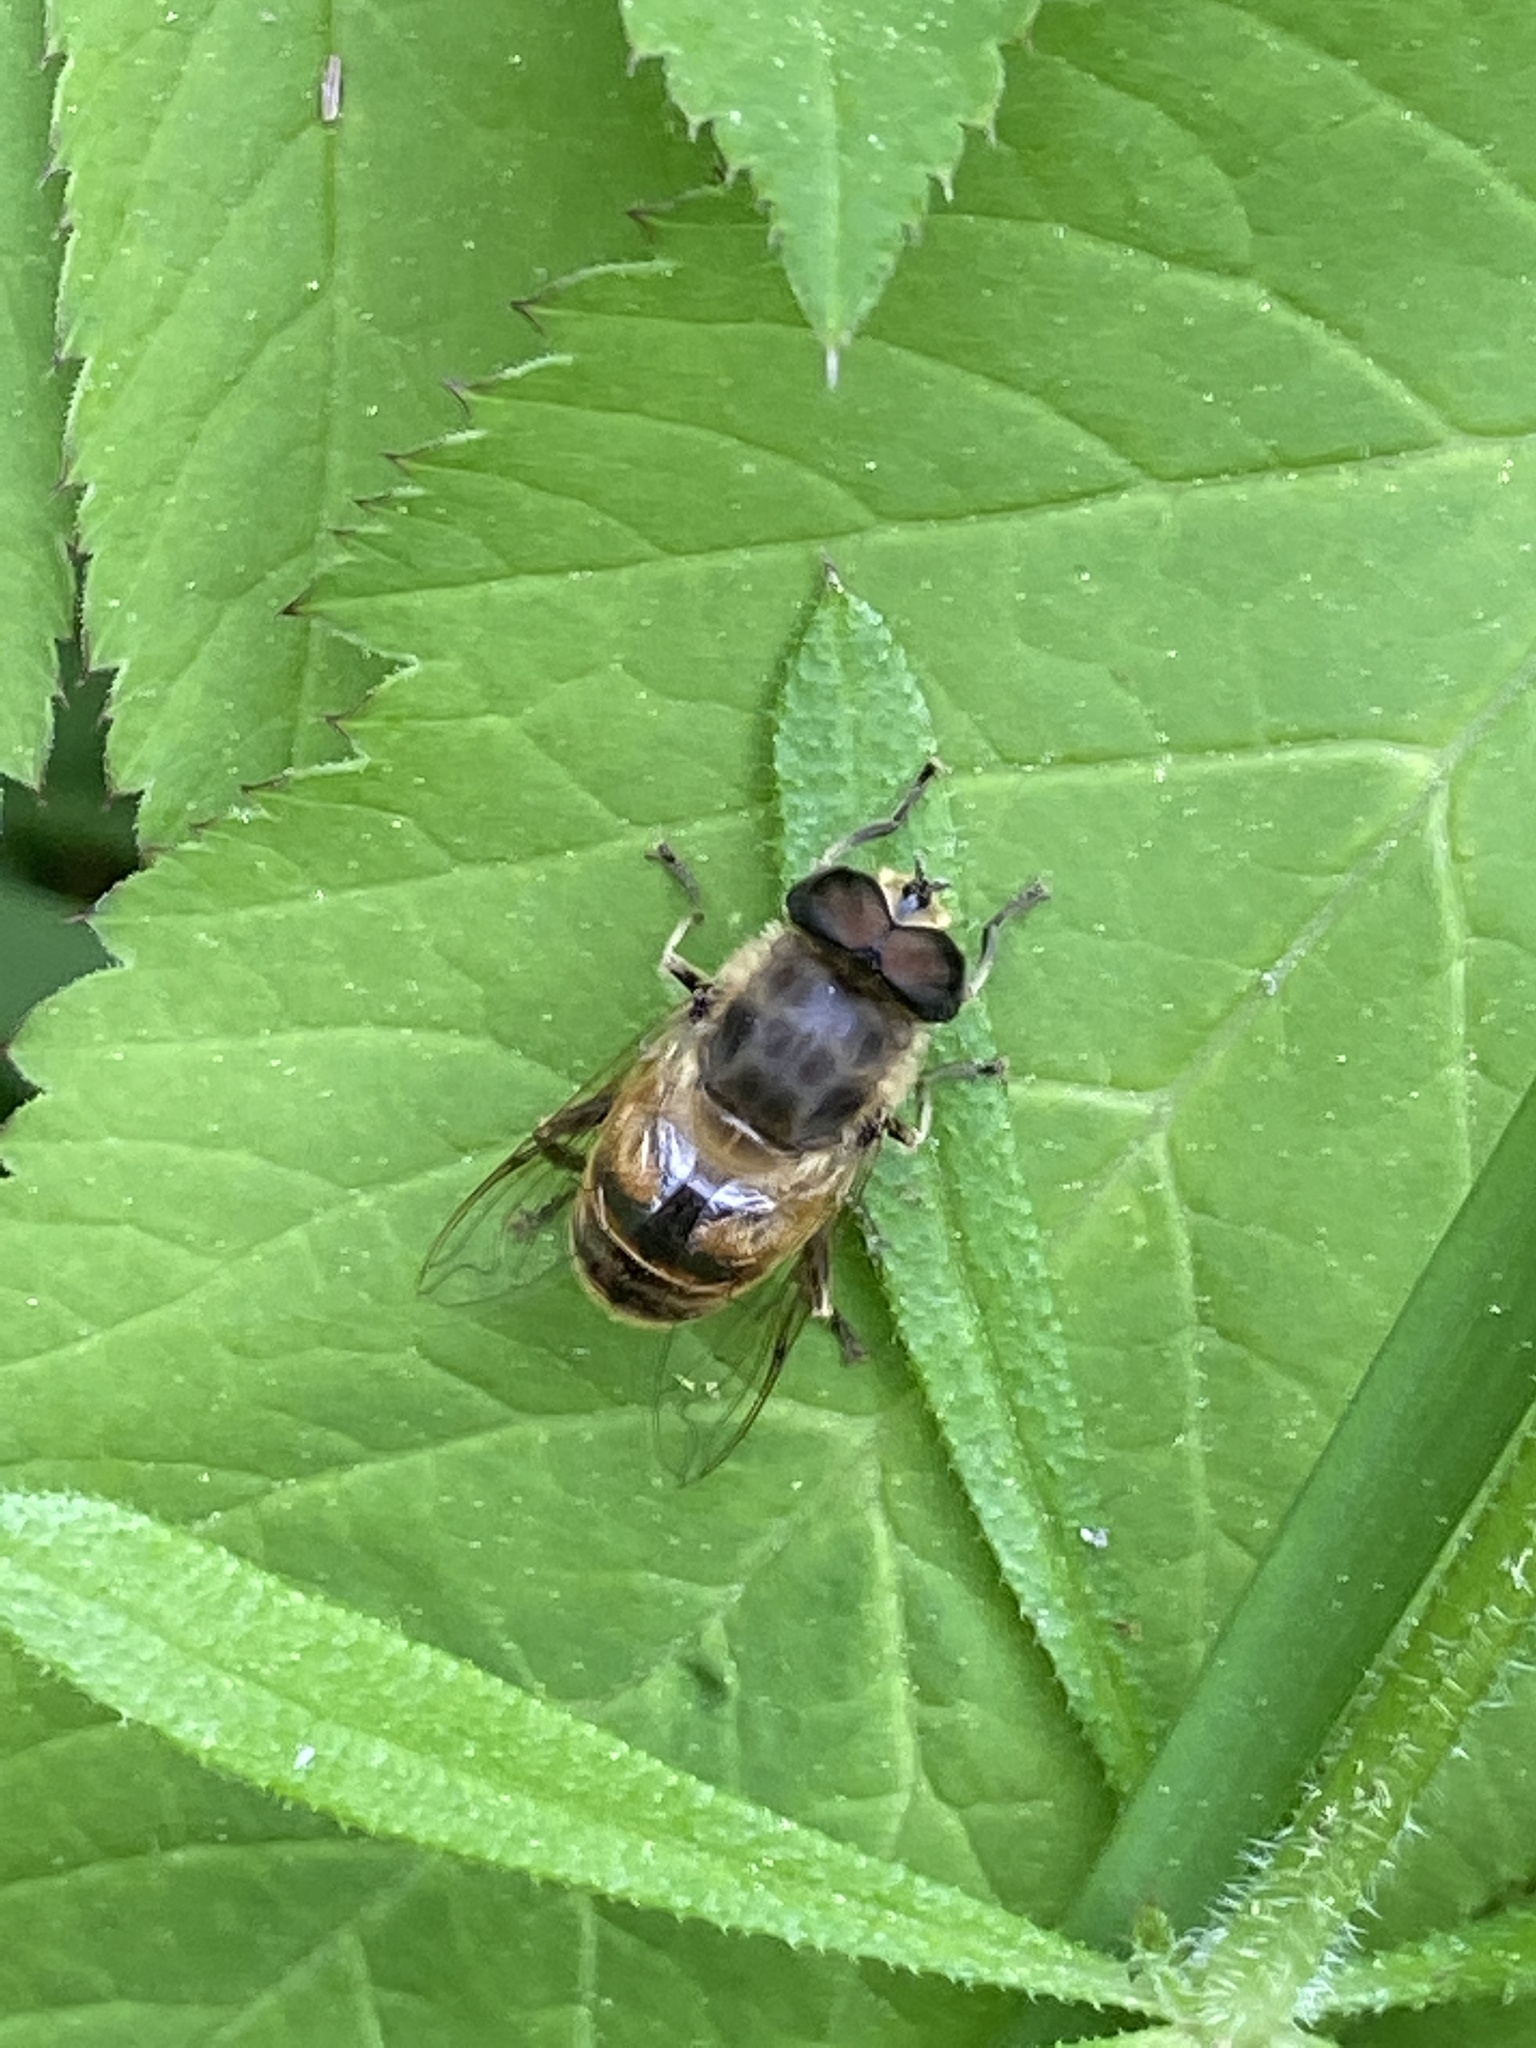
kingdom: Animalia
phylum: Arthropoda
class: Insecta
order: Diptera
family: Syrphidae
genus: Eristalis
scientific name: Eristalis tenax
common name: Drone fly
